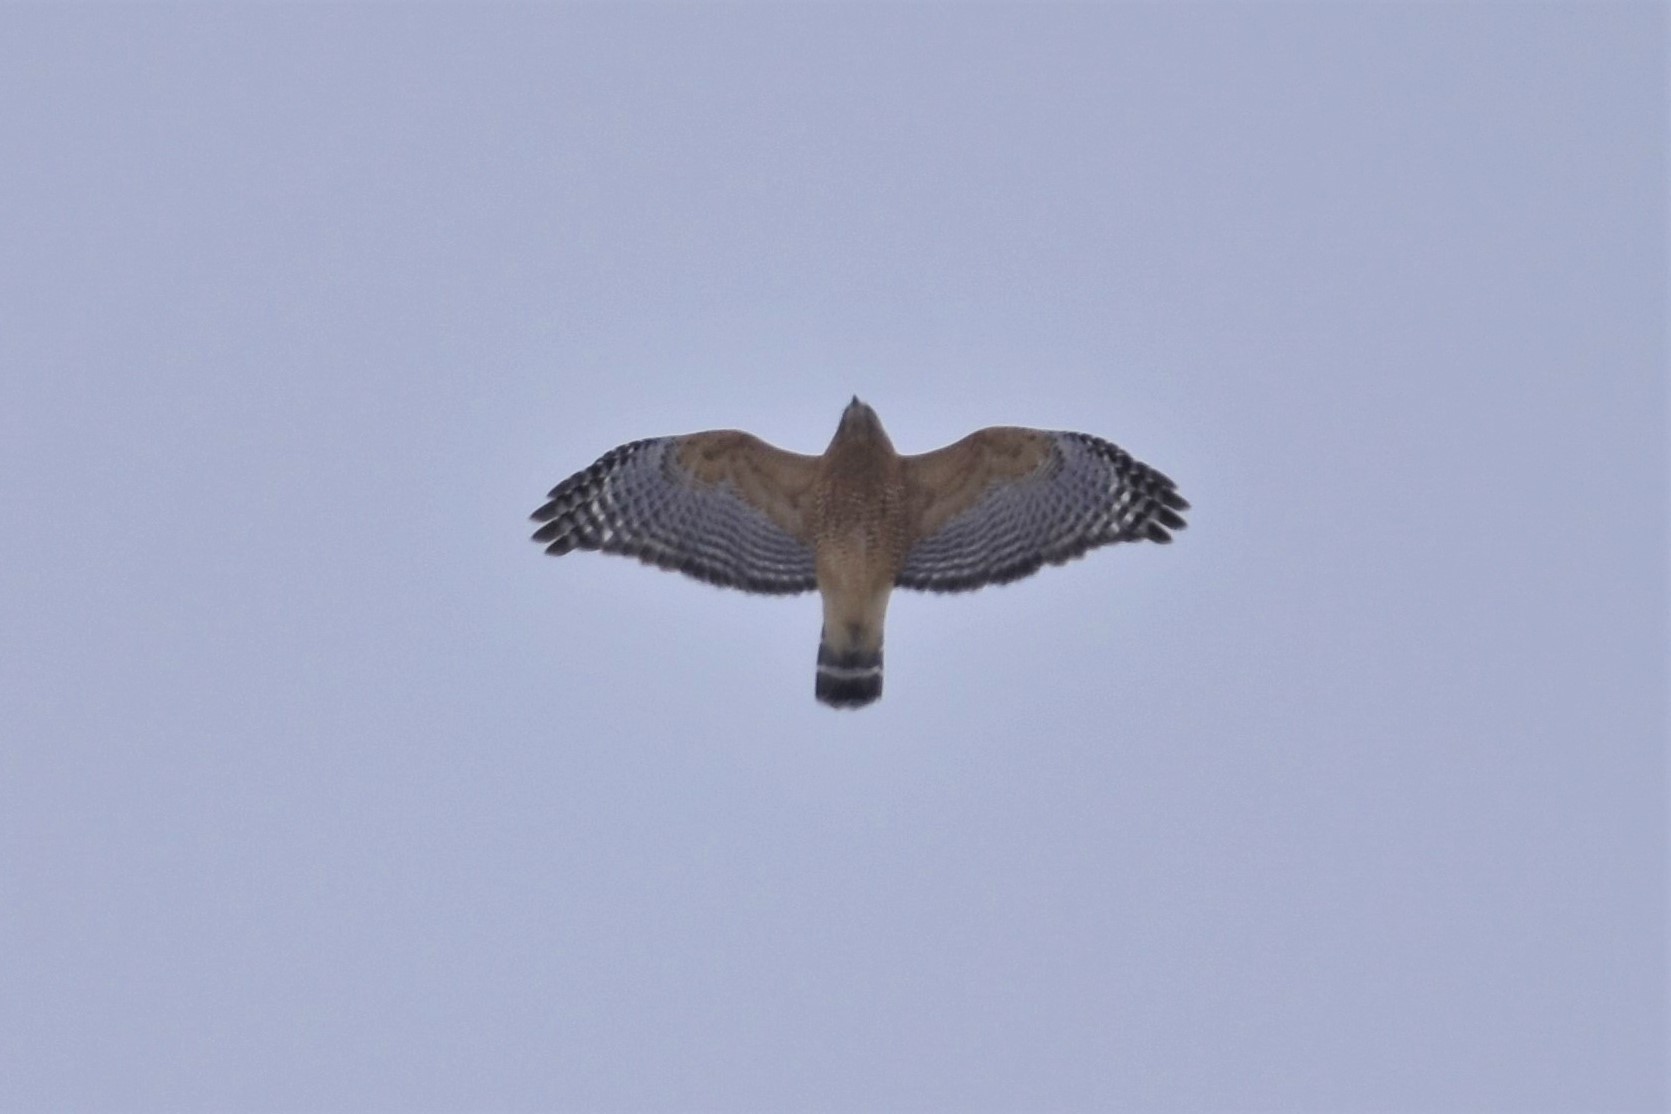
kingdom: Animalia
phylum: Chordata
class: Aves
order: Accipitriformes
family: Accipitridae
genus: Buteo
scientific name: Buteo lineatus
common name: Red-shouldered hawk
